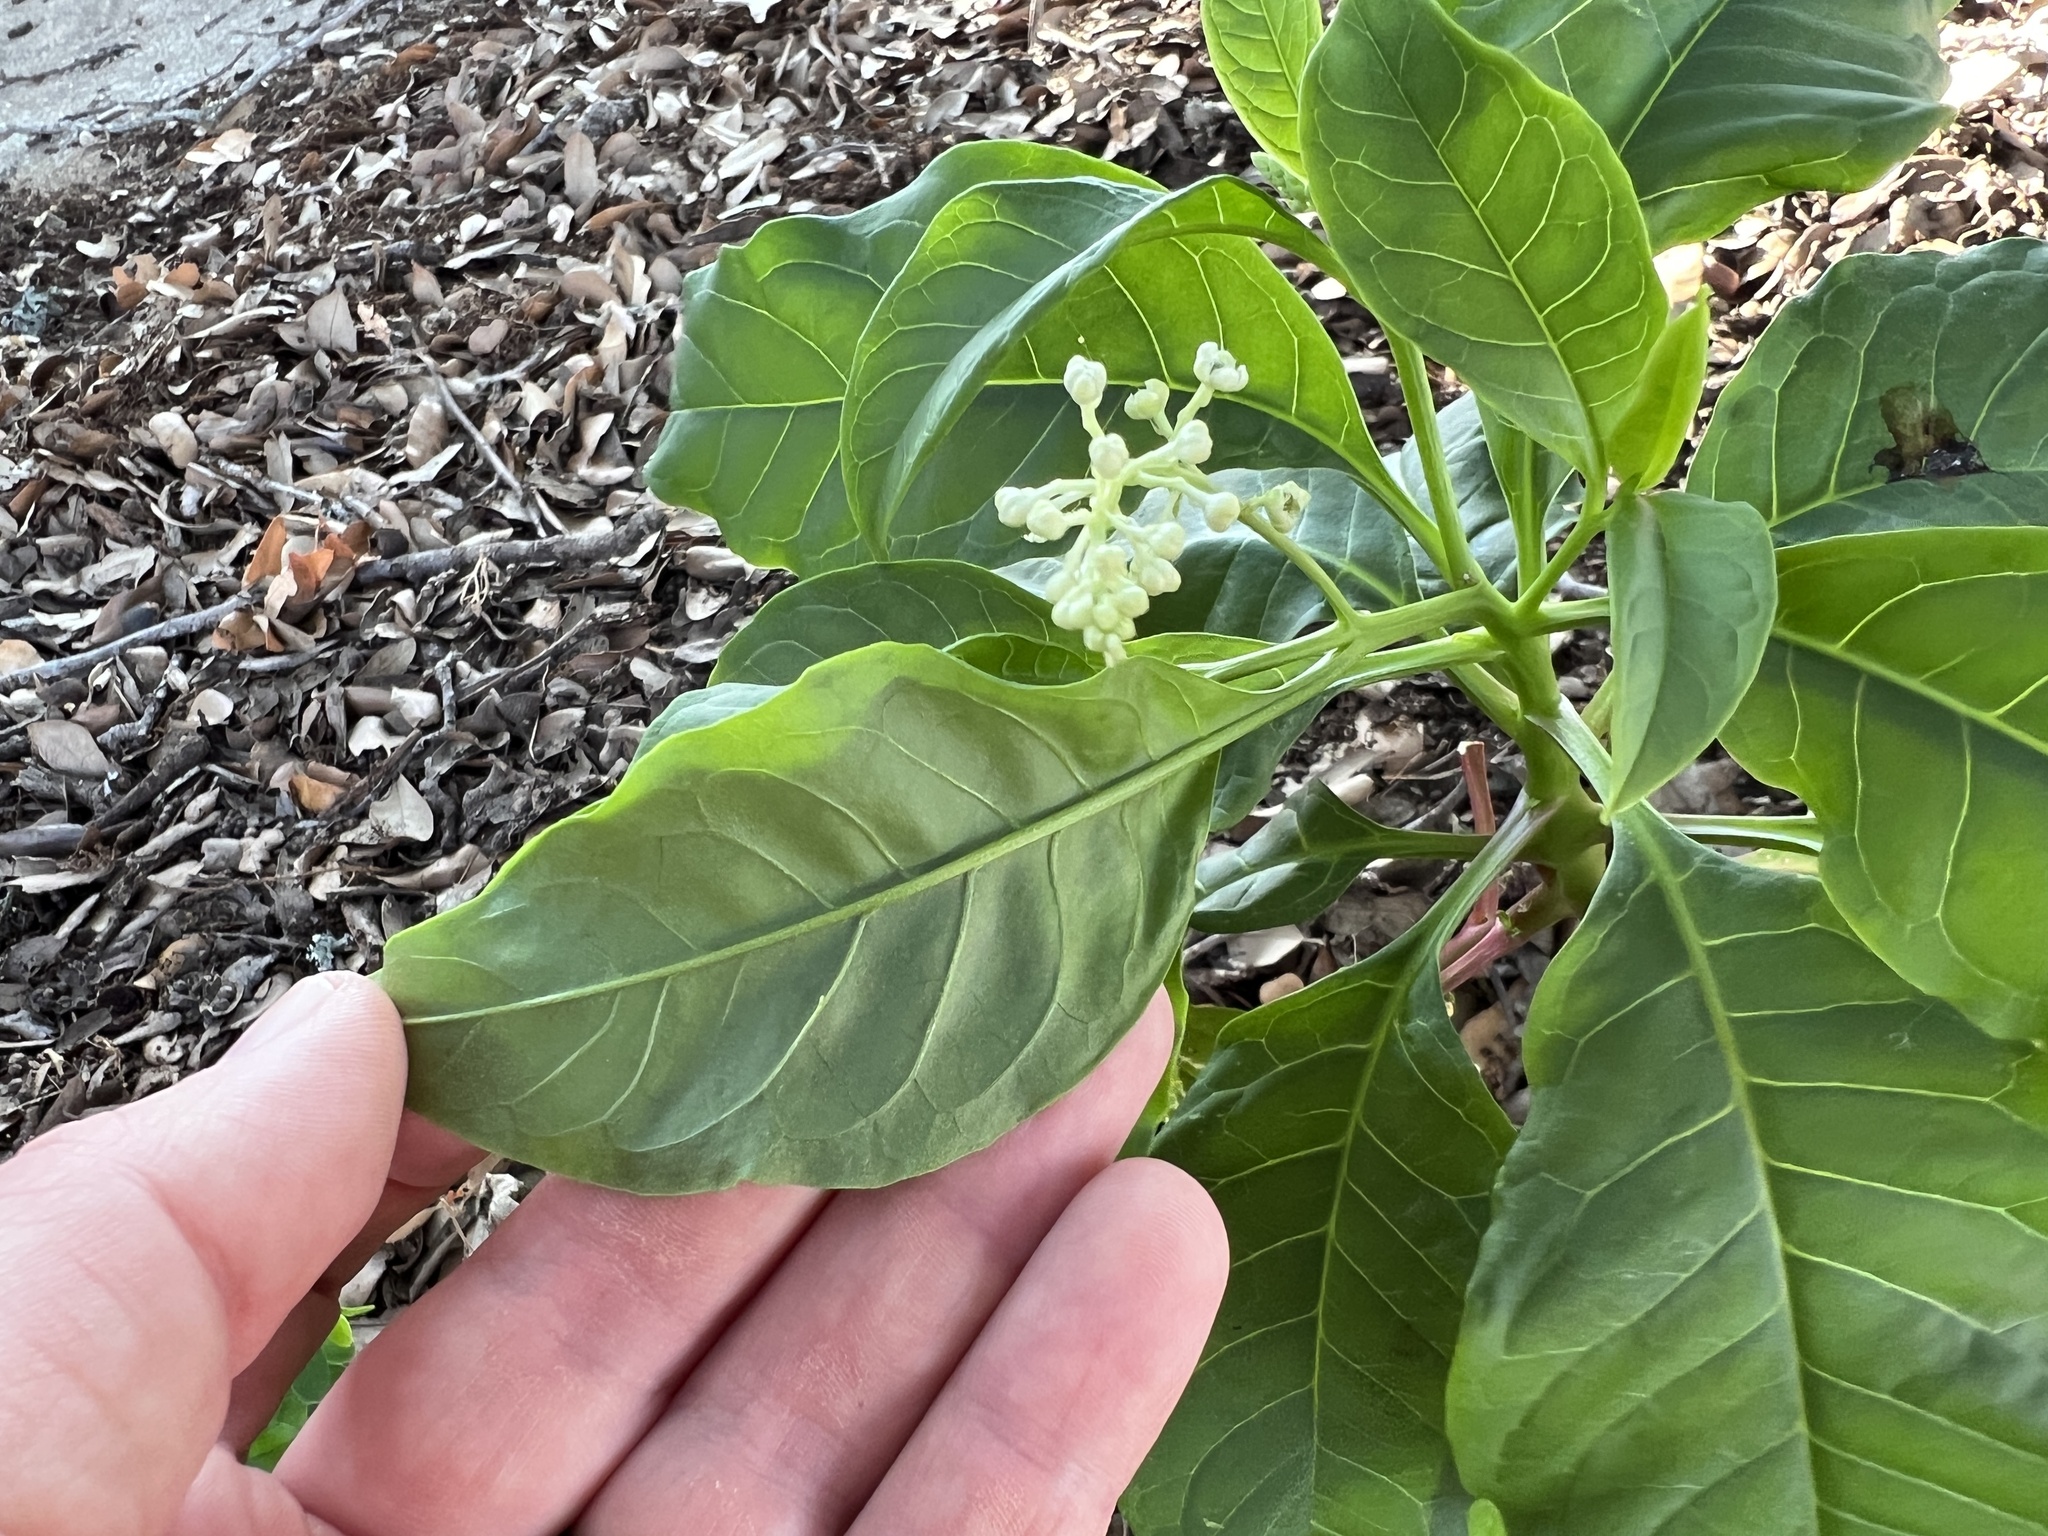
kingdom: Plantae
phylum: Tracheophyta
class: Magnoliopsida
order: Caryophyllales
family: Phytolaccaceae
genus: Phytolacca
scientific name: Phytolacca americana
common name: American pokeweed
